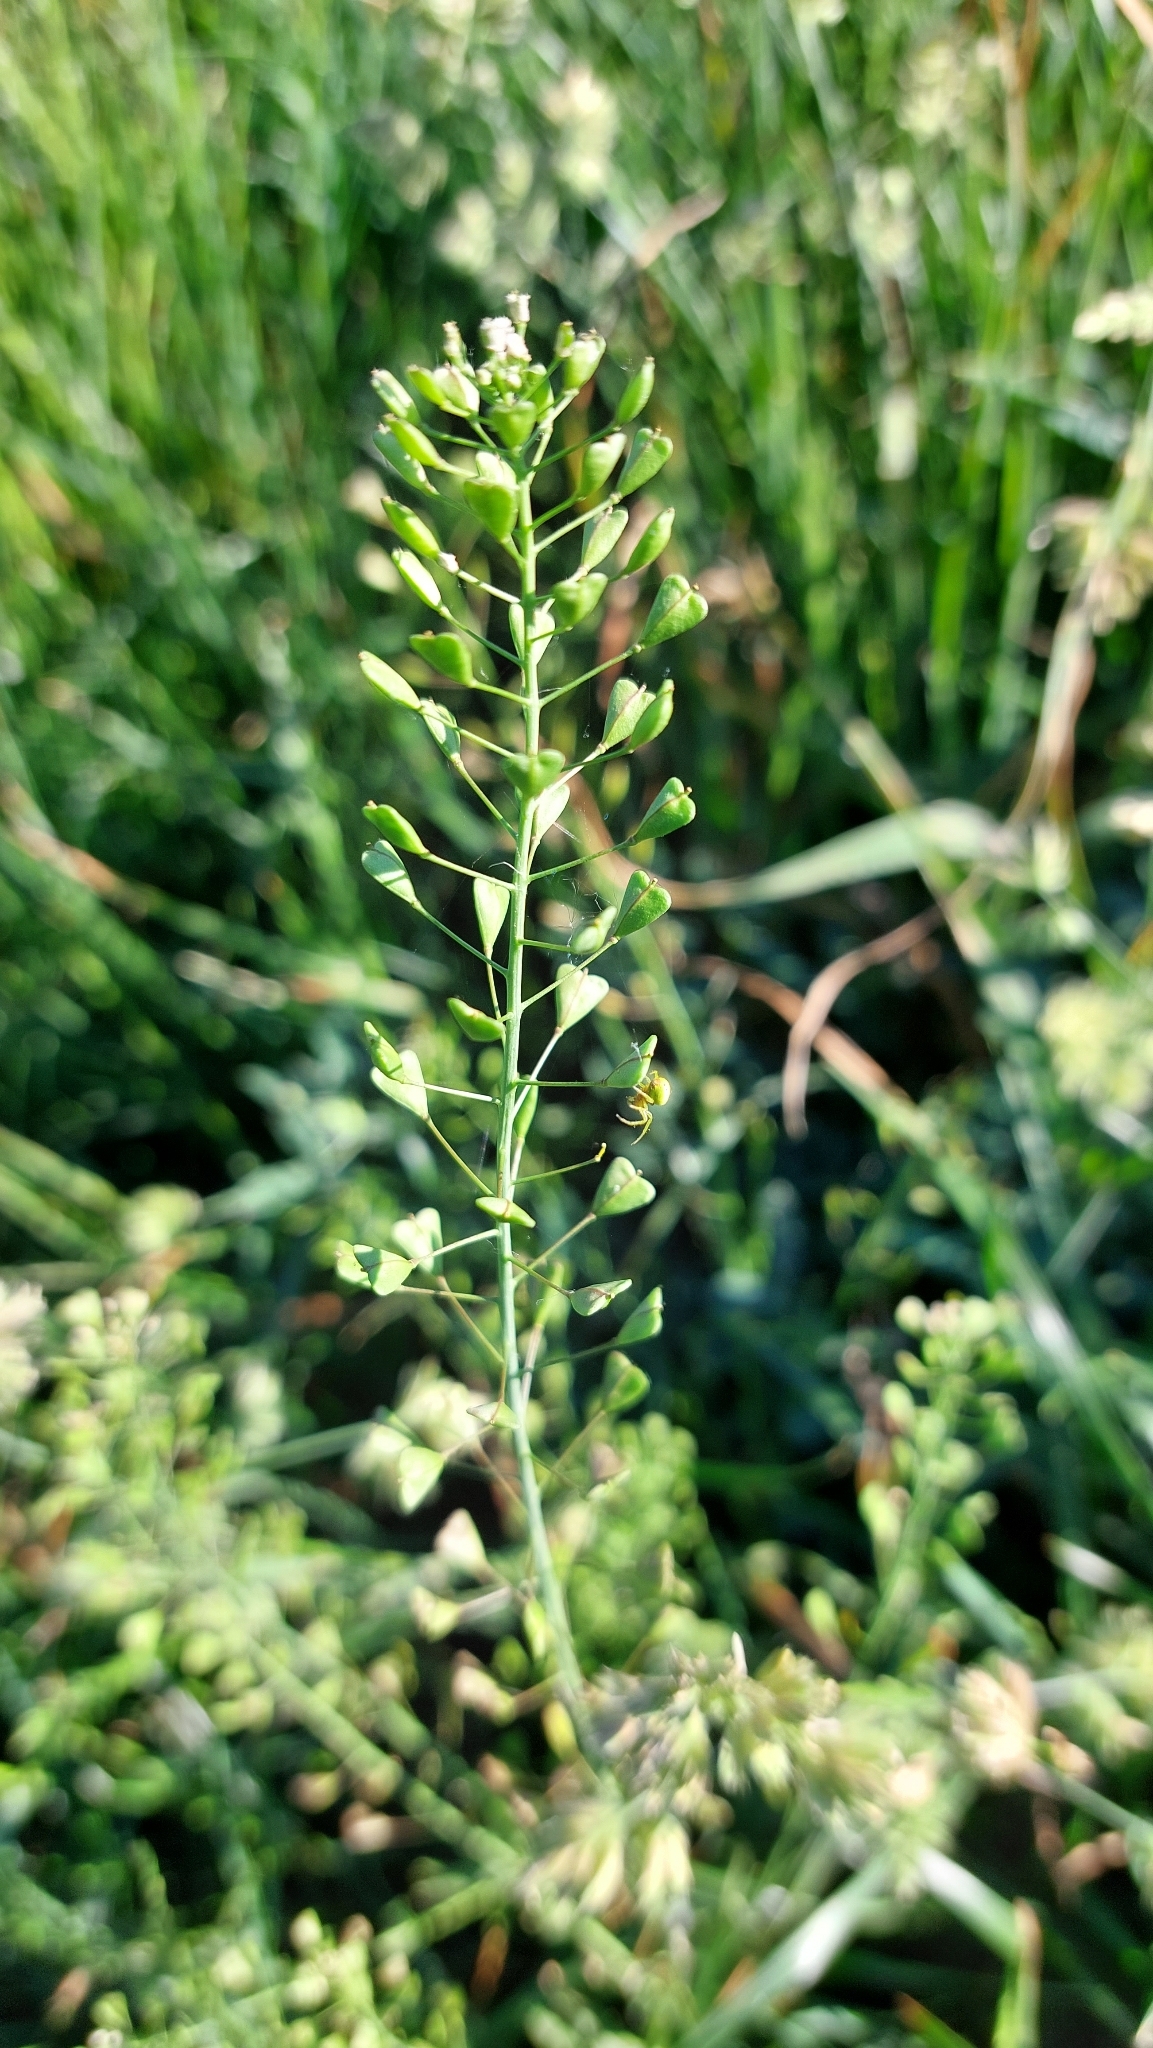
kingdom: Plantae
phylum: Tracheophyta
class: Magnoliopsida
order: Brassicales
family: Brassicaceae
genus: Capsella
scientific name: Capsella bursa-pastoris
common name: Shepherd's purse
